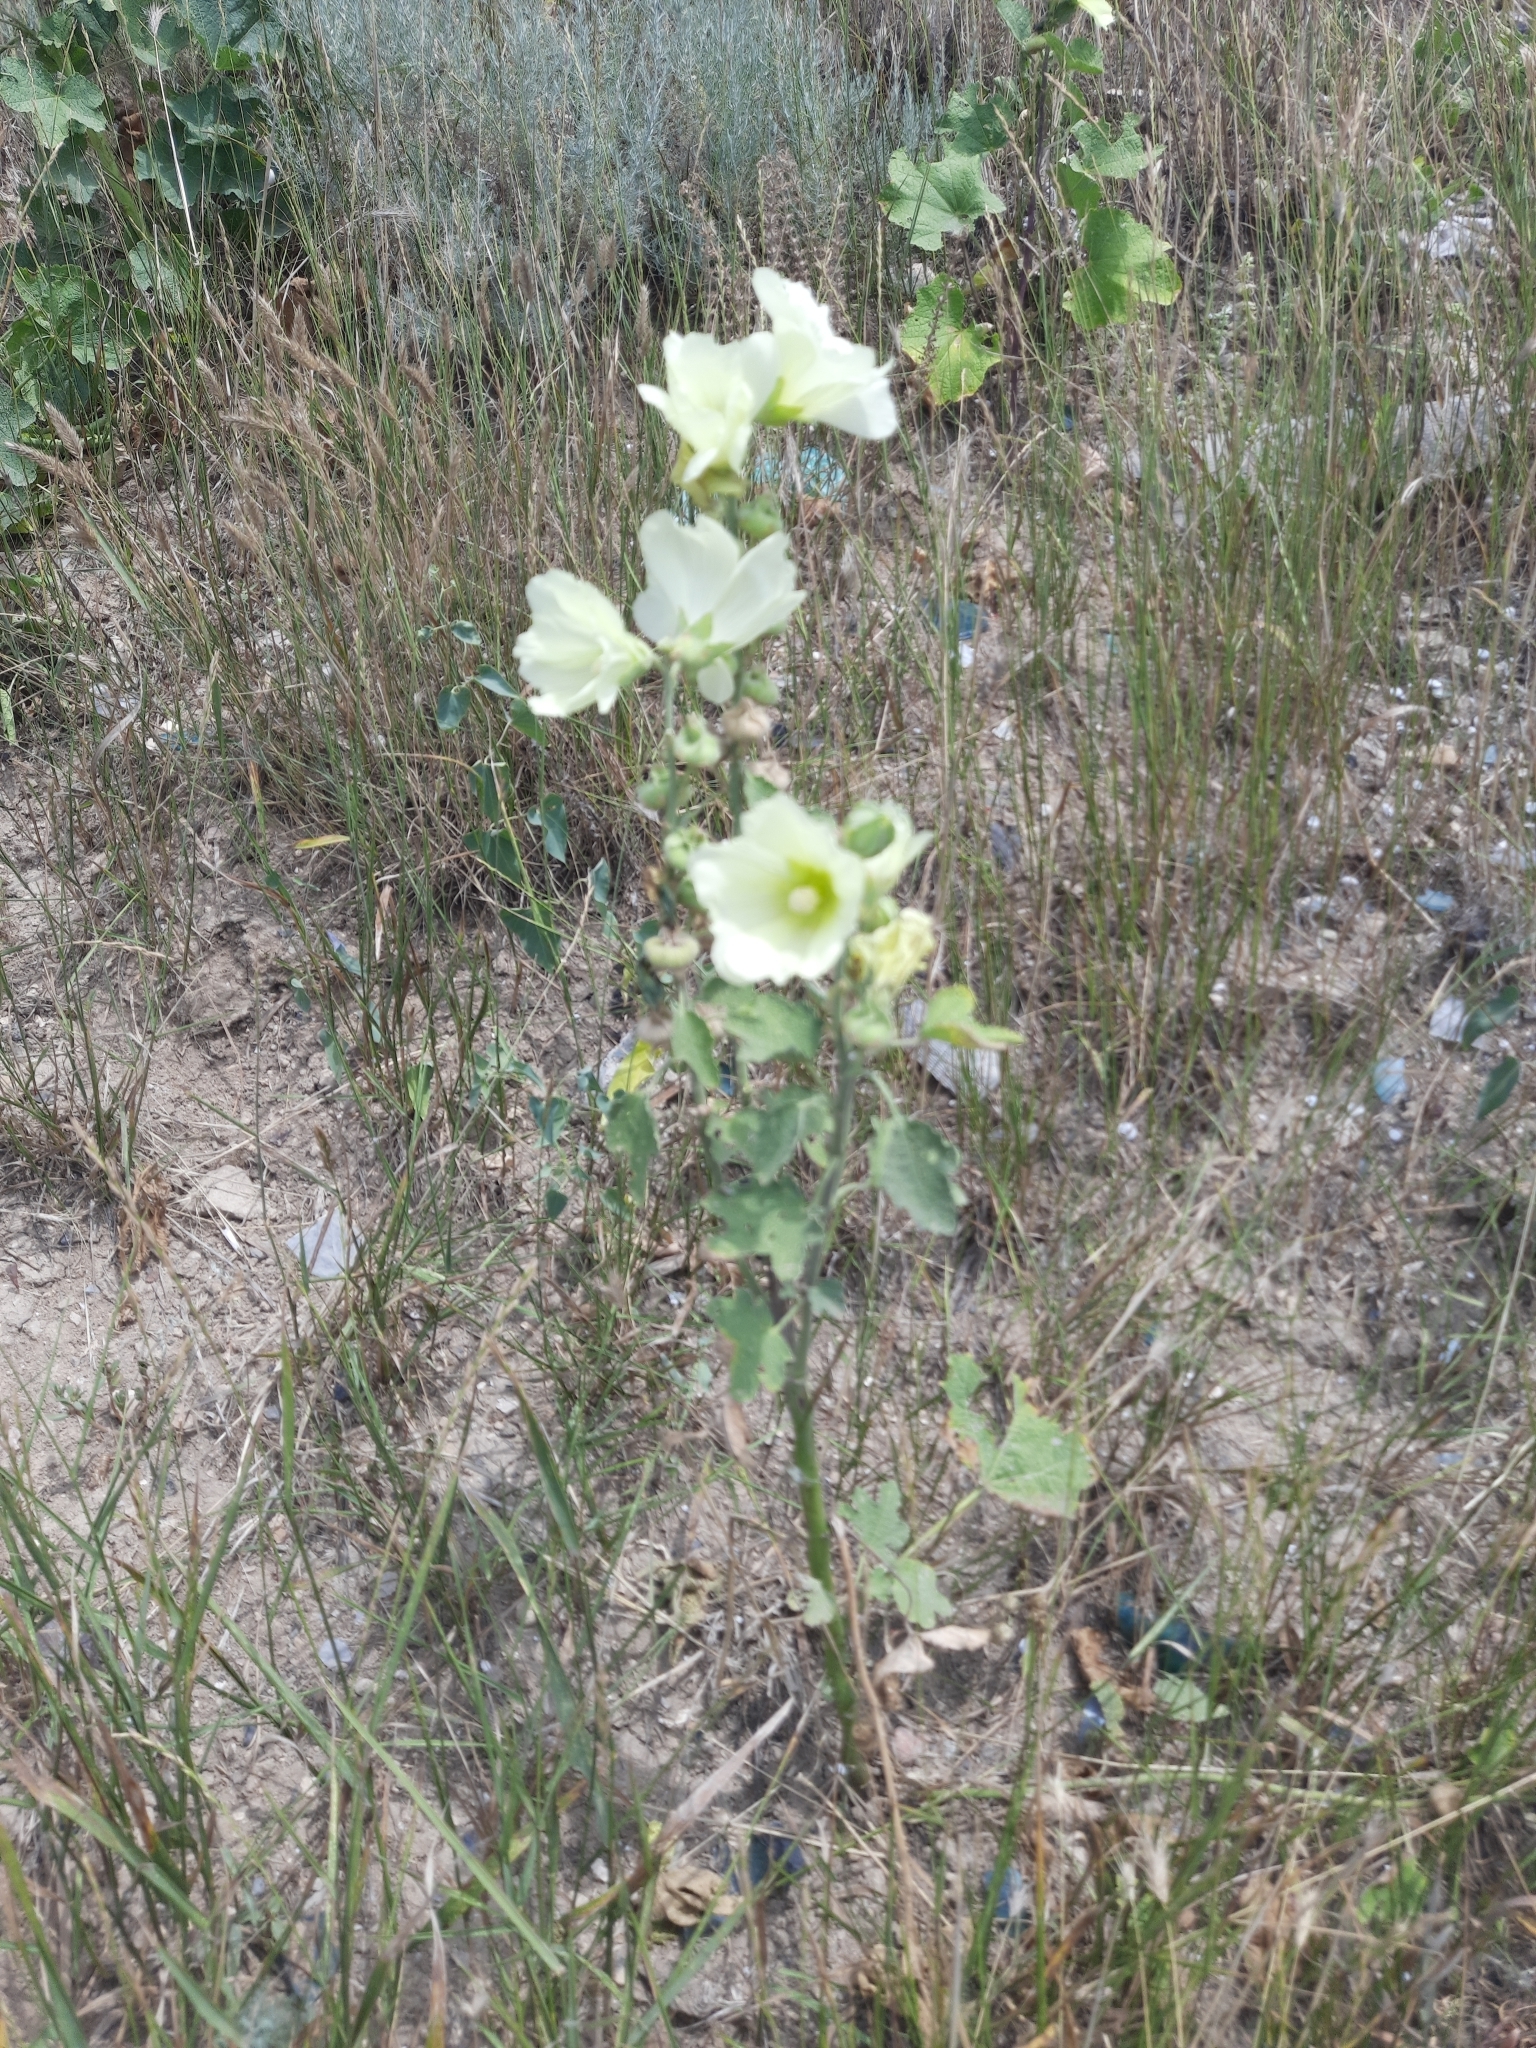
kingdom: Plantae
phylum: Tracheophyta
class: Magnoliopsida
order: Malvales
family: Malvaceae
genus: Alcea
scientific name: Alcea rugosa
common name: Russian hollyhock
